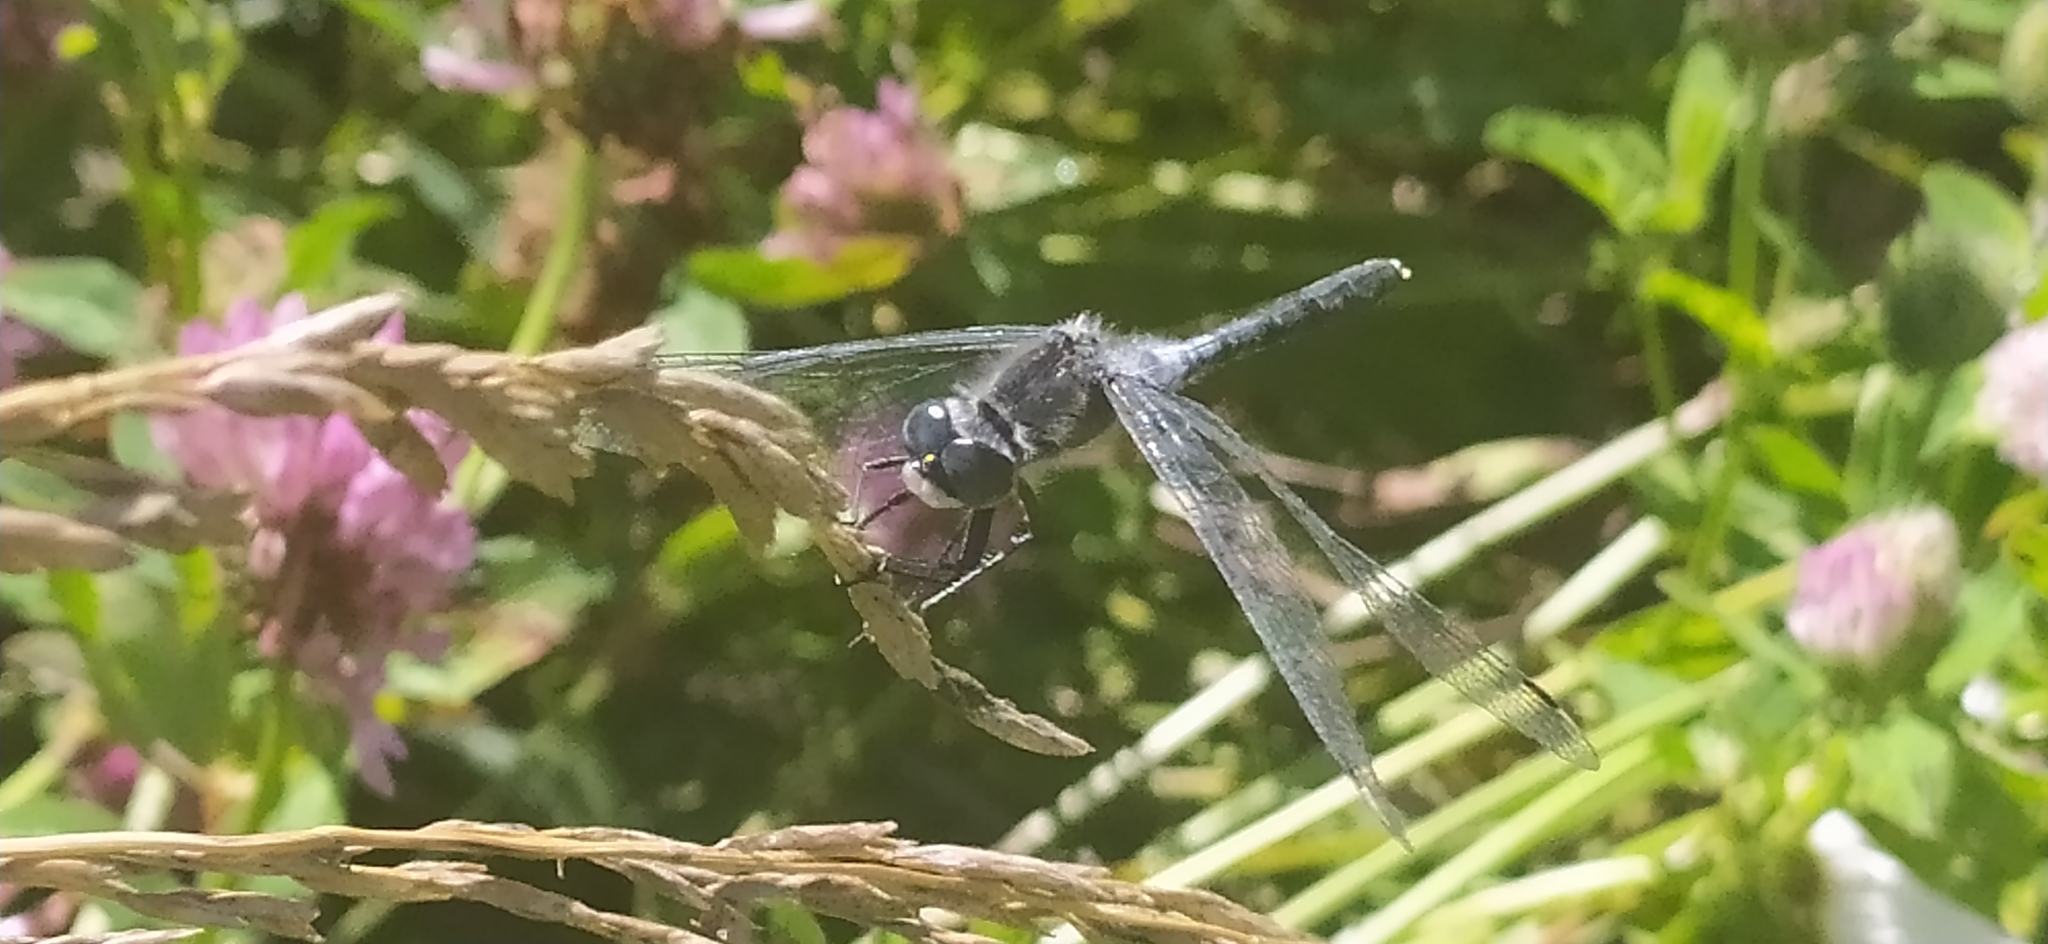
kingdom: Animalia
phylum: Arthropoda
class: Insecta
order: Odonata
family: Libellulidae
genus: Leucorrhinia
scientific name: Leucorrhinia albifrons
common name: Dark whiteface
